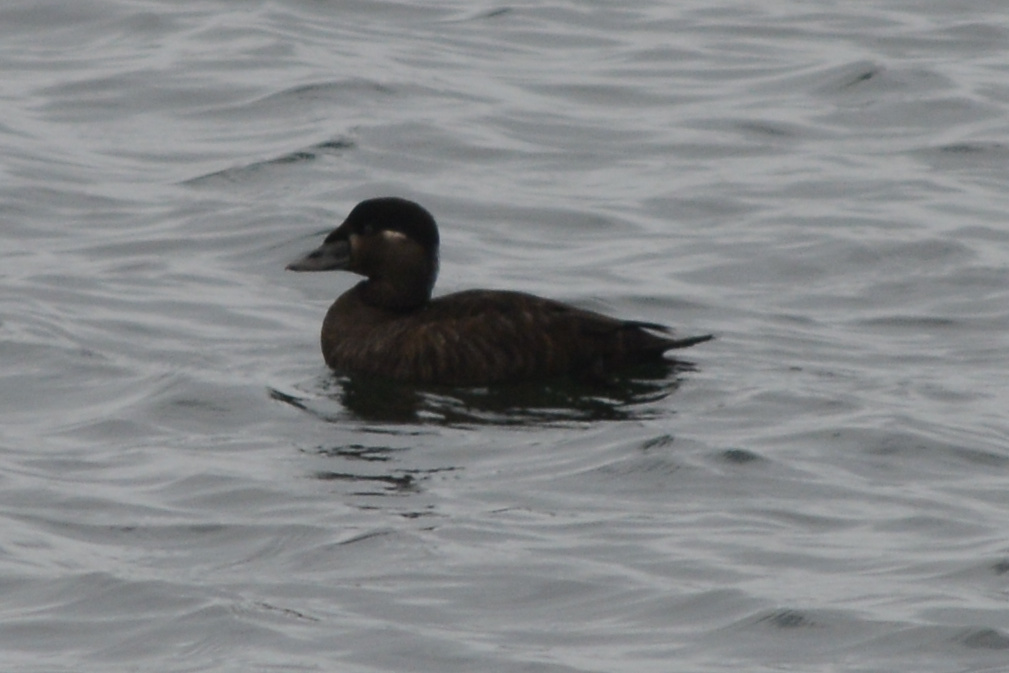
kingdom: Animalia
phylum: Chordata
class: Aves
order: Anseriformes
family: Anatidae
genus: Melanitta
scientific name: Melanitta perspicillata
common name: Surf scoter
